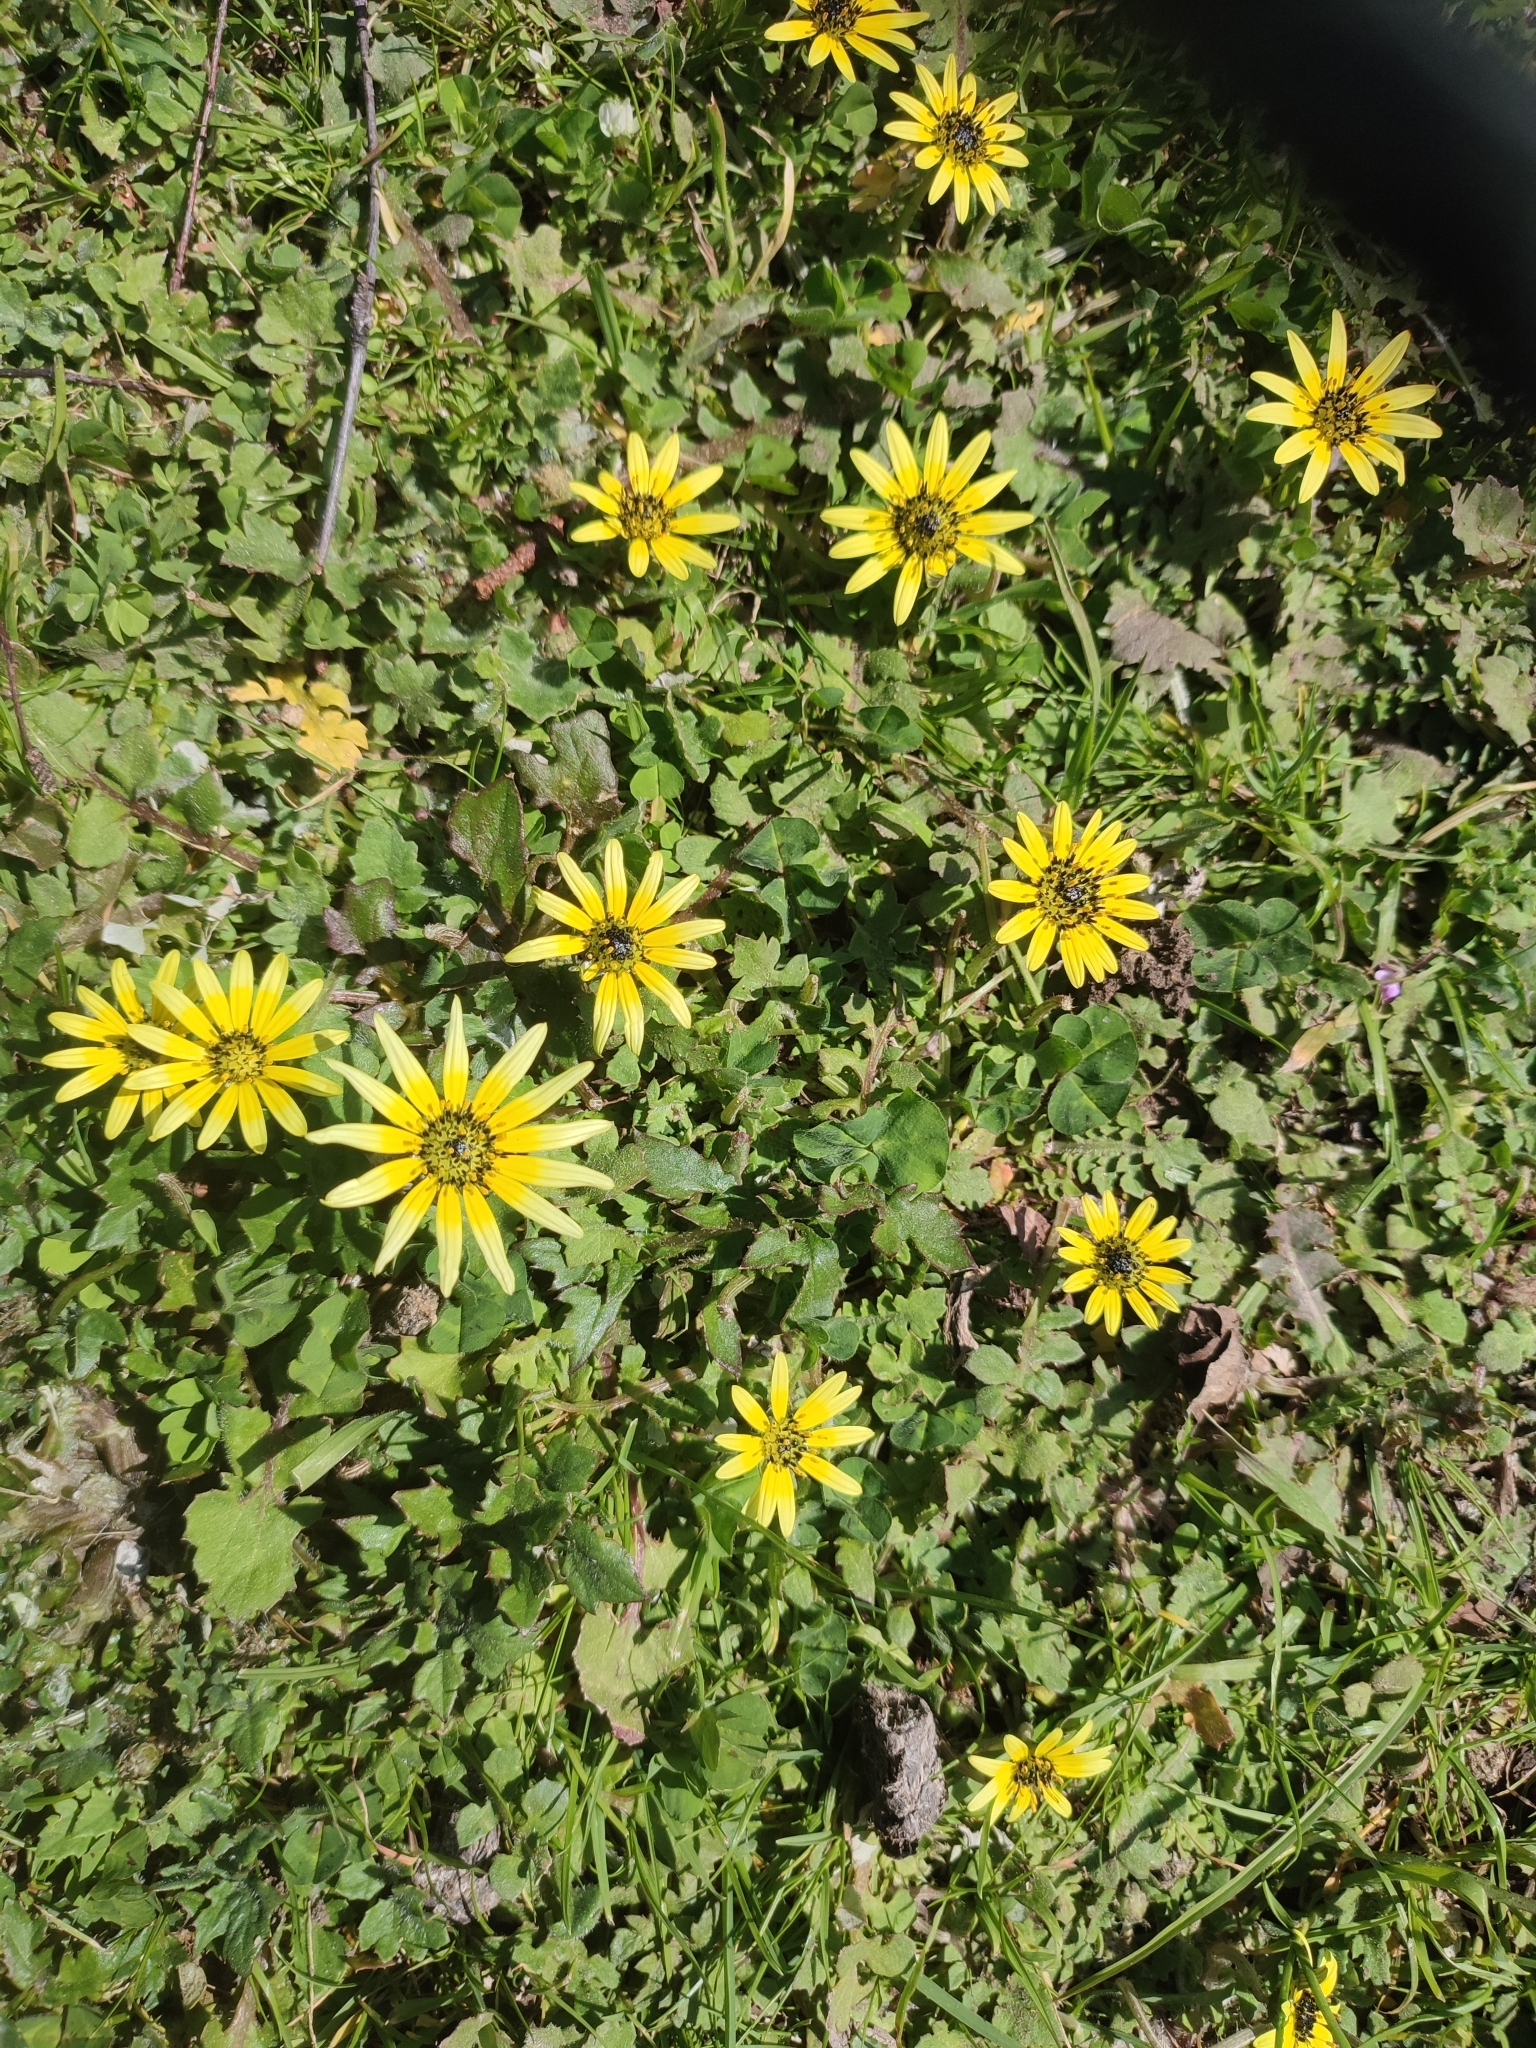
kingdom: Plantae
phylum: Tracheophyta
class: Magnoliopsida
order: Asterales
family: Asteraceae
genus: Arctotheca
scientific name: Arctotheca calendula
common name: Capeweed
